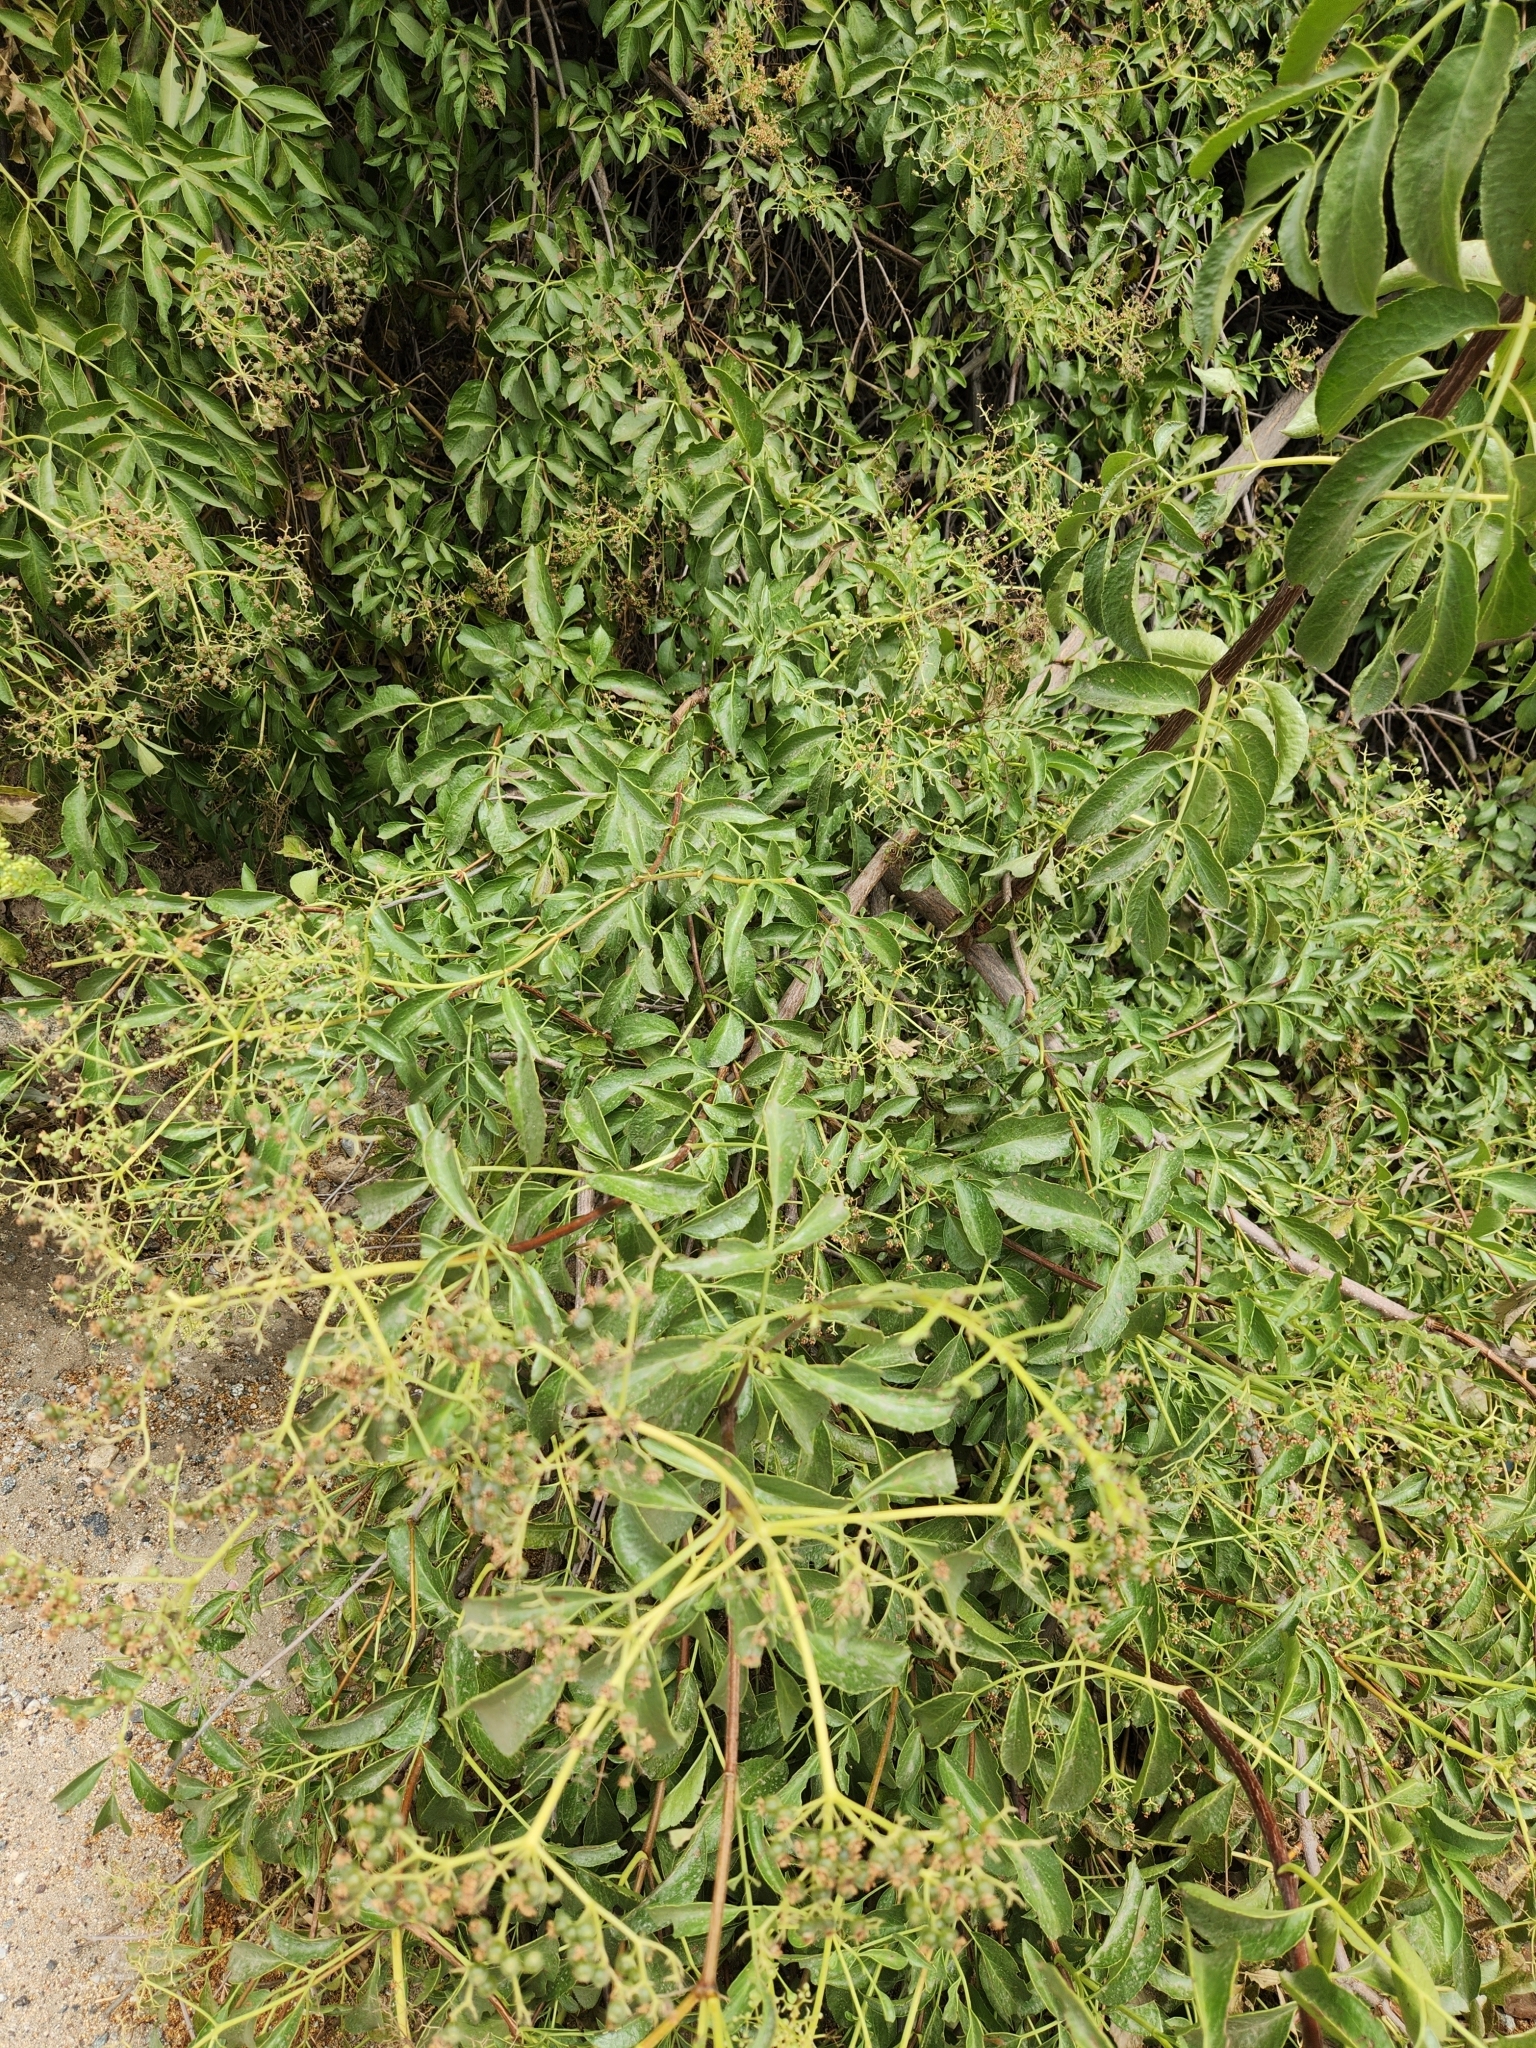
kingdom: Plantae
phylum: Tracheophyta
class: Magnoliopsida
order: Dipsacales
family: Viburnaceae
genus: Sambucus
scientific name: Sambucus cerulea
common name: Blue elder
